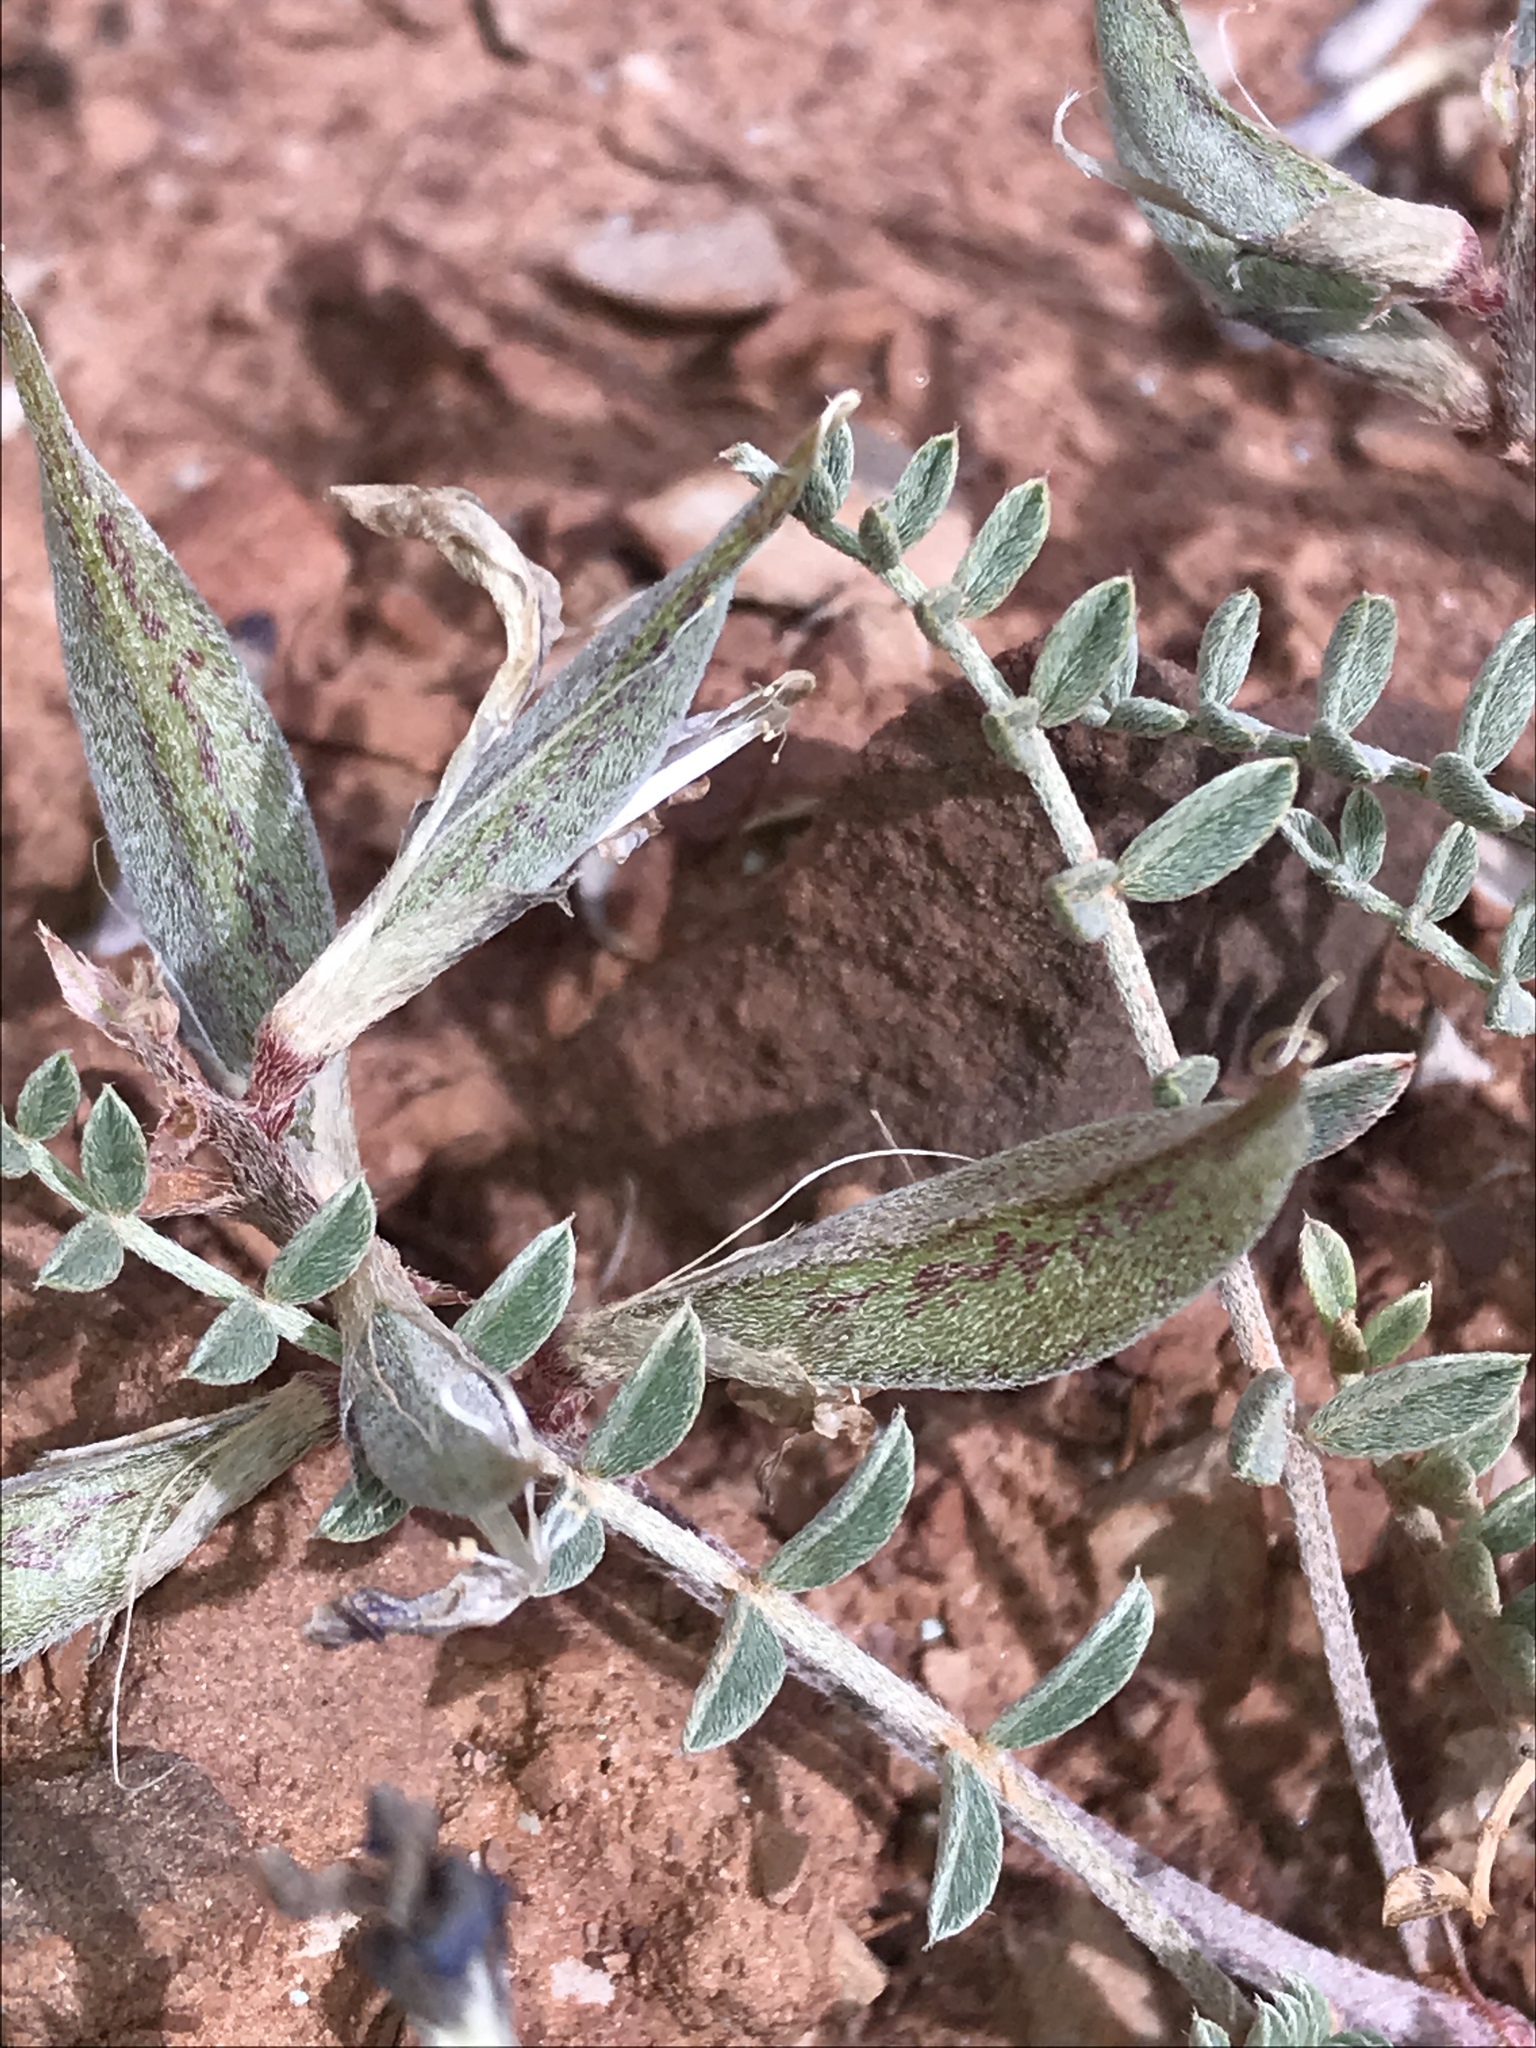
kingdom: Plantae
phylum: Tracheophyta
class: Magnoliopsida
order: Fabales
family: Fabaceae
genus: Astragalus
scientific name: Astragalus amphioxys
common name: Crescent milk-vetch
